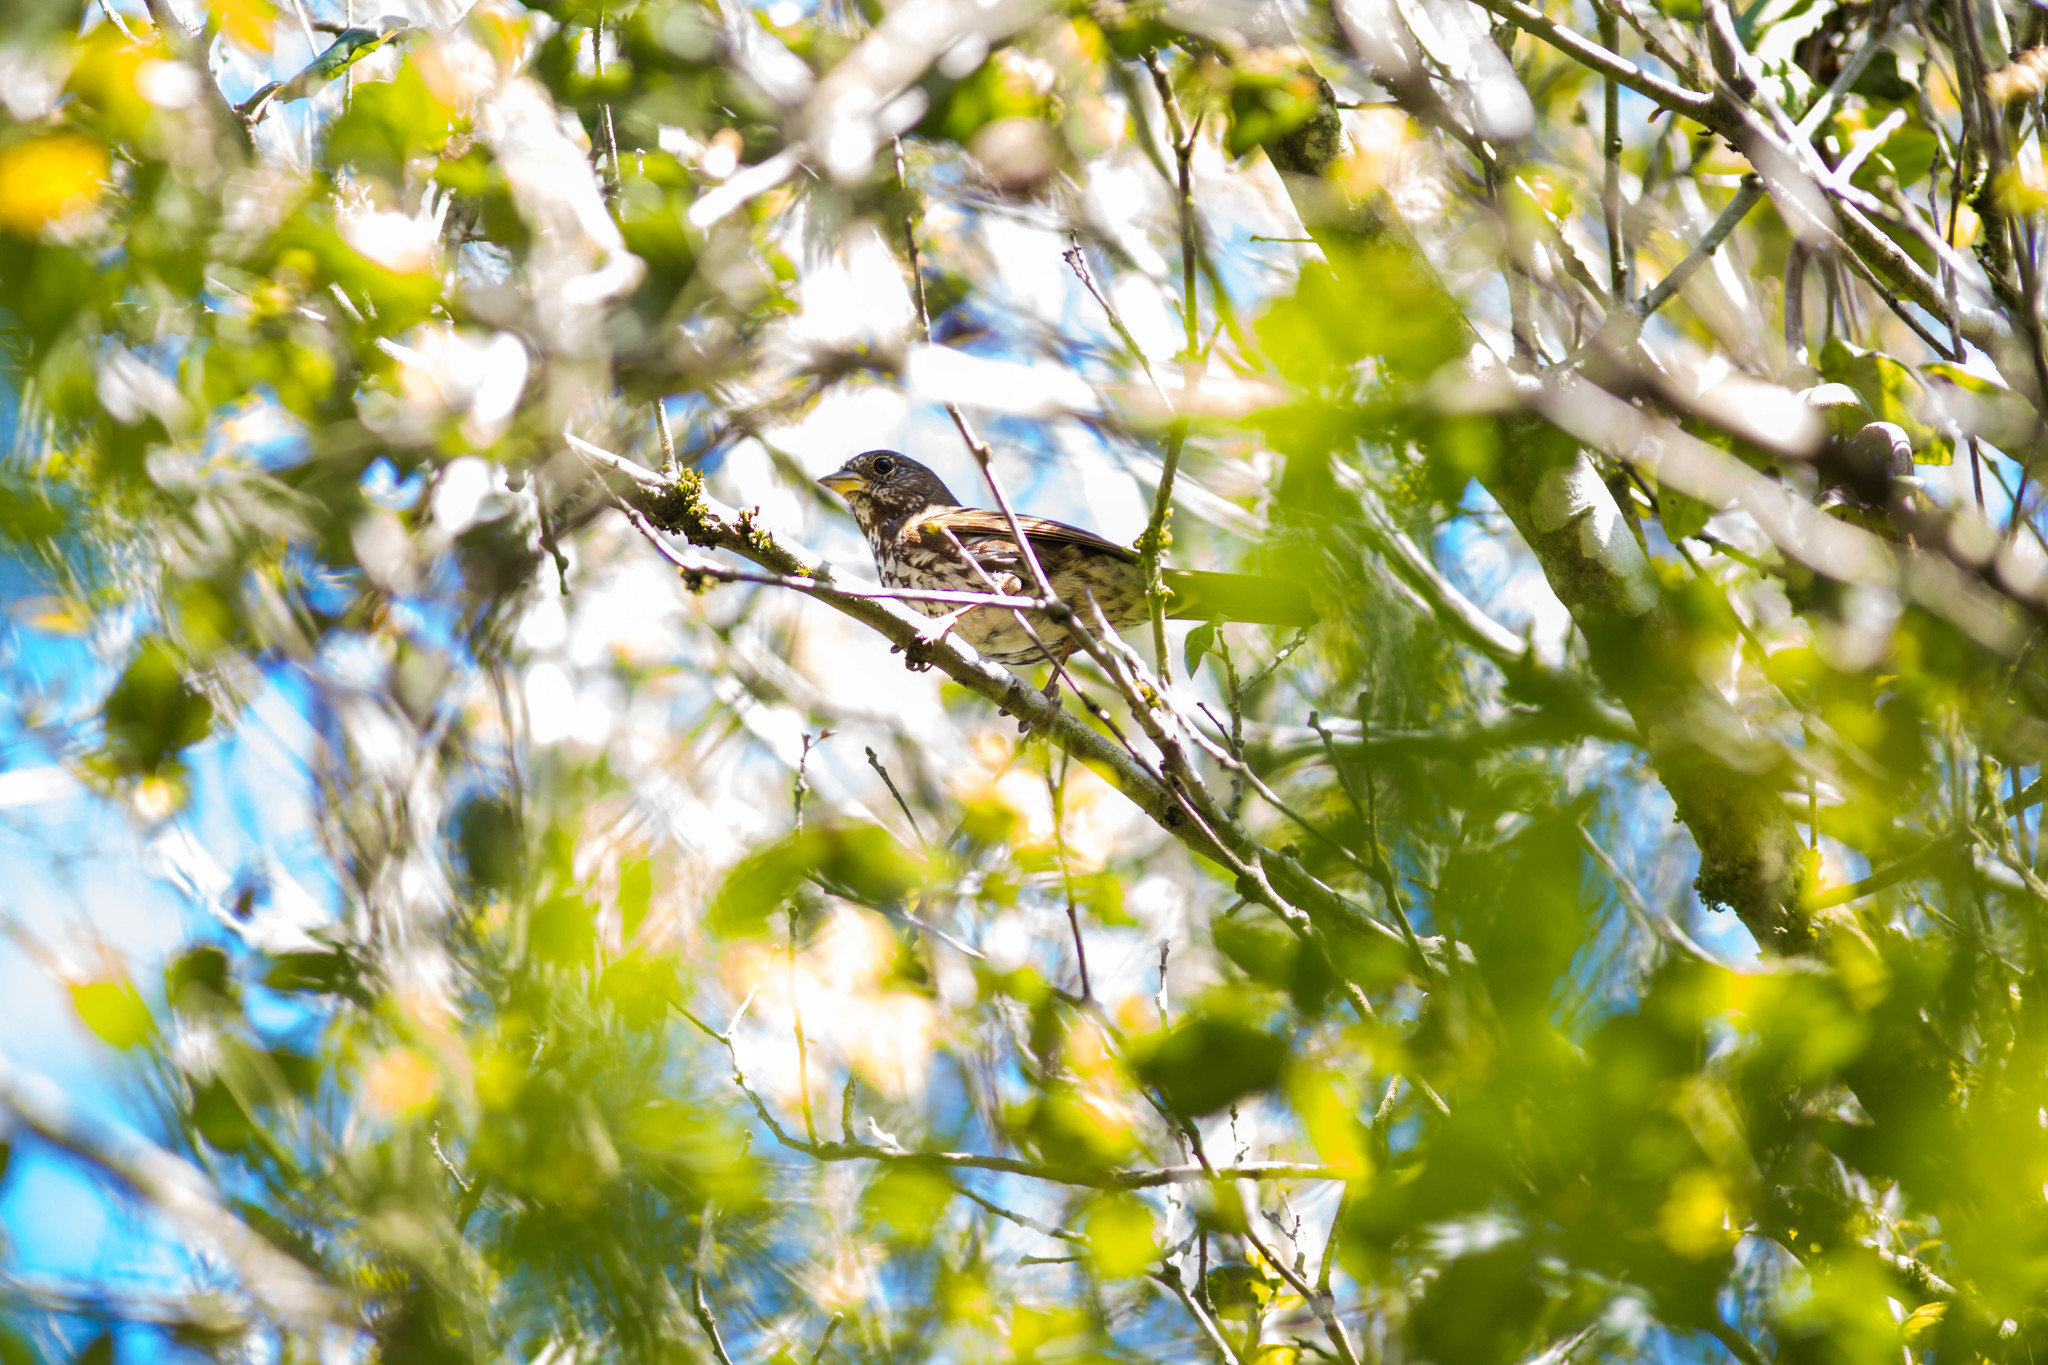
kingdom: Animalia
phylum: Chordata
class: Aves
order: Passeriformes
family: Passerellidae
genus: Passerella
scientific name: Passerella iliaca
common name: Fox sparrow
